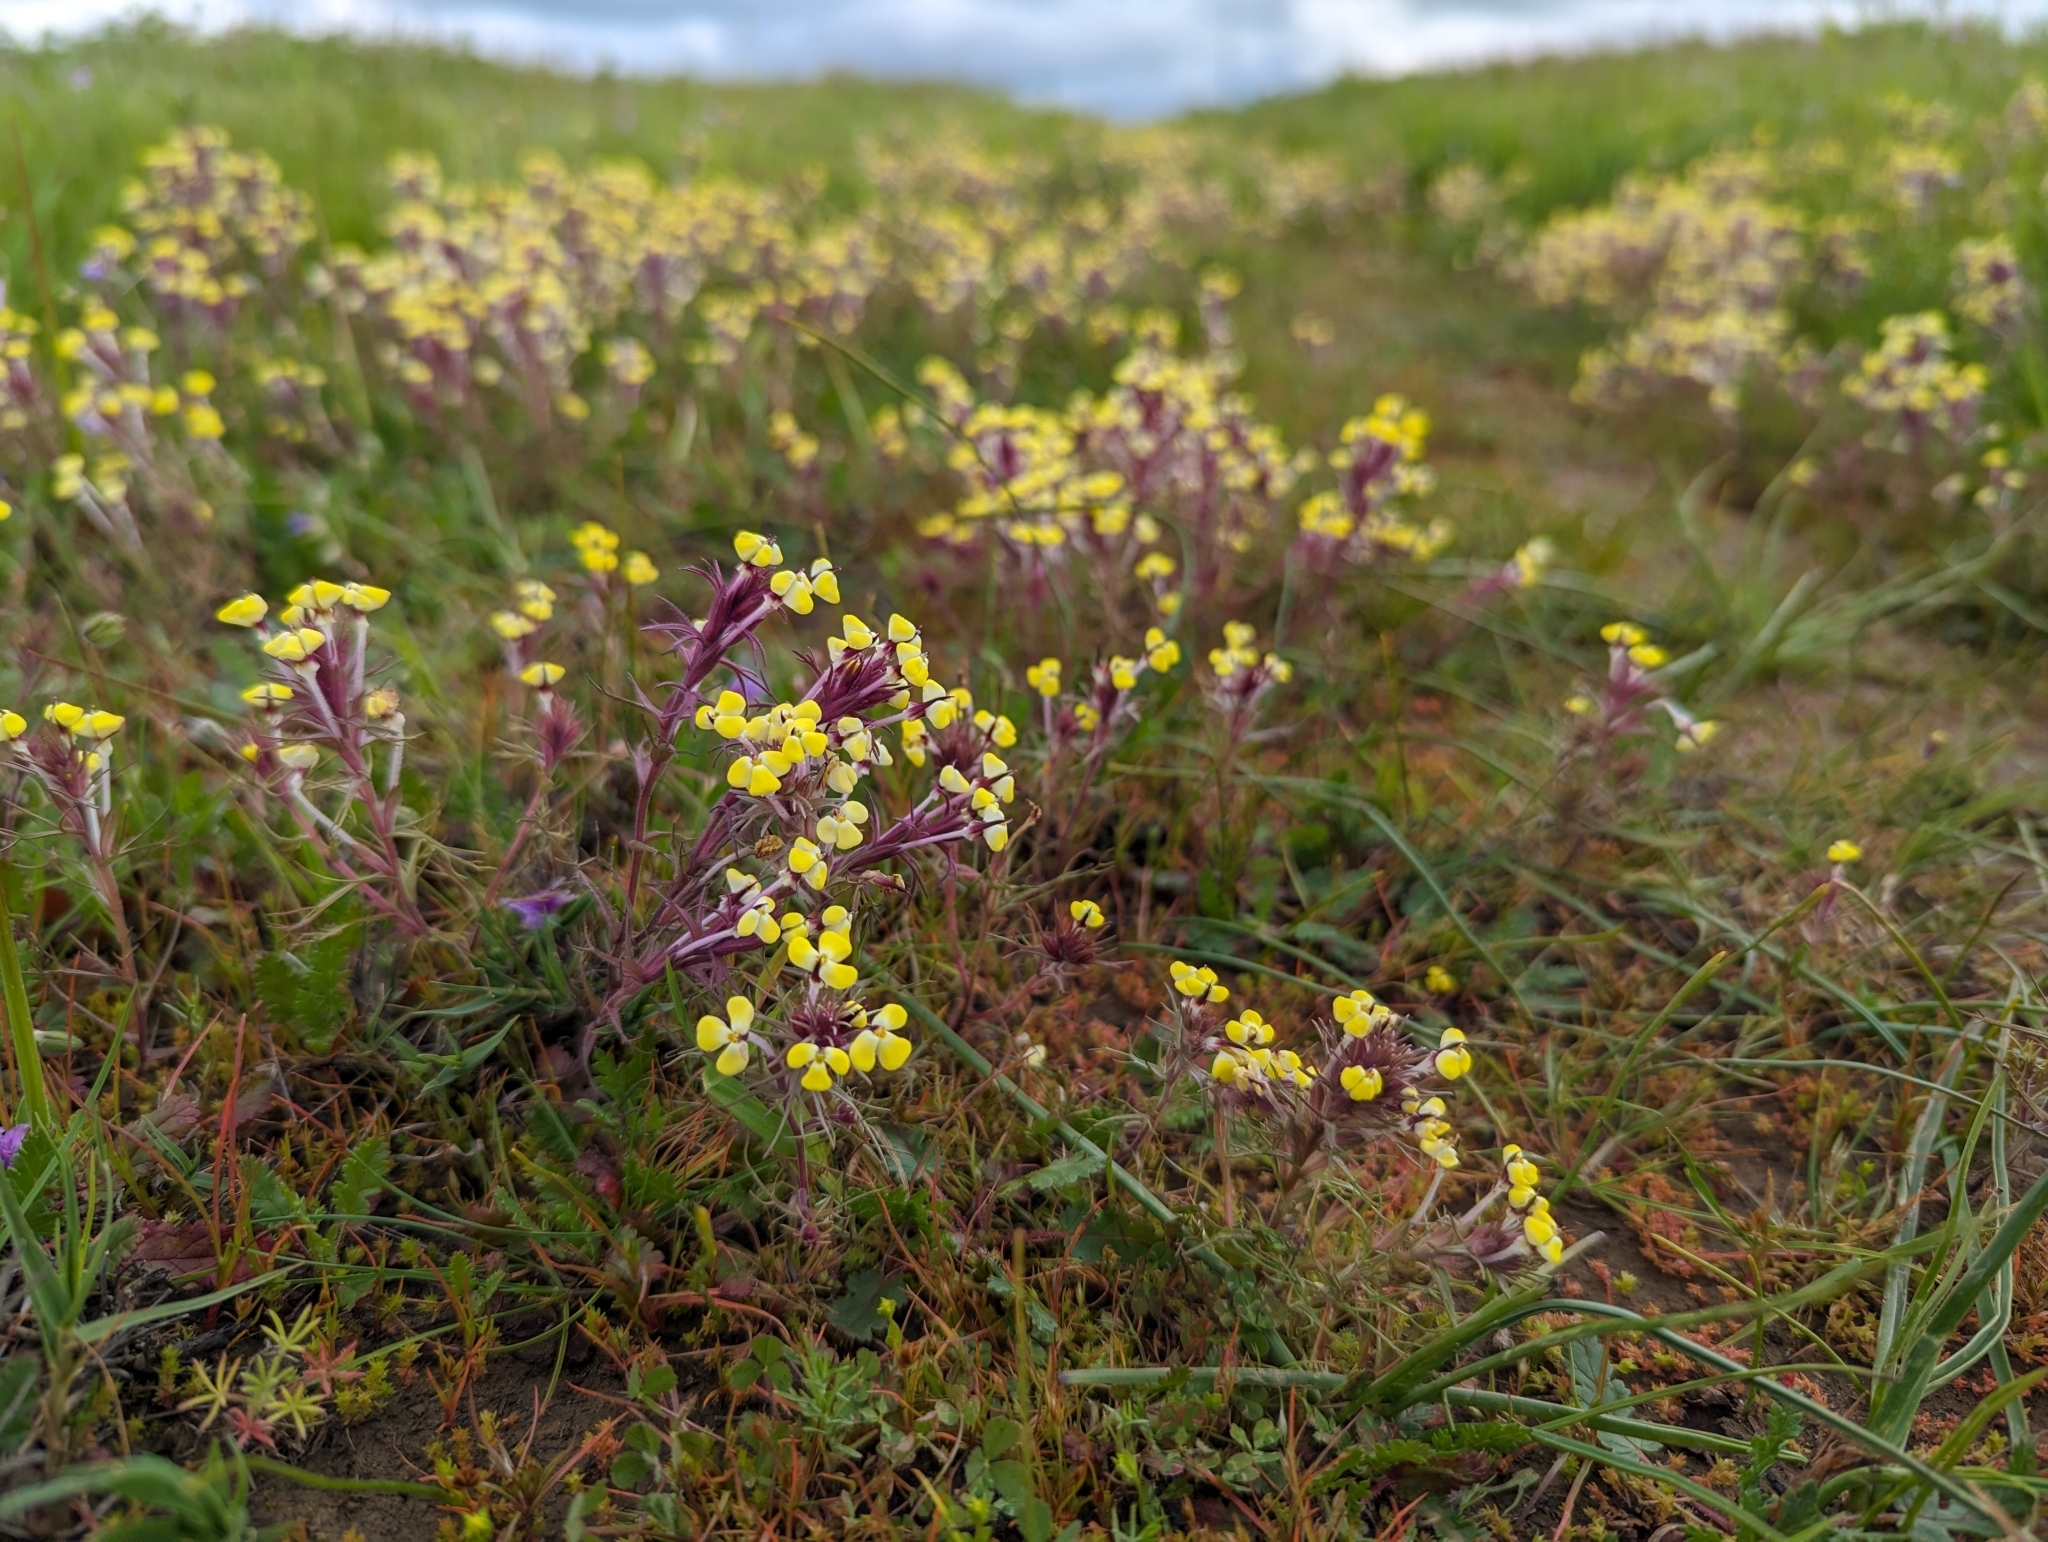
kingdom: Plantae
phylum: Tracheophyta
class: Magnoliopsida
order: Lamiales
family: Orobanchaceae
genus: Triphysaria
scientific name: Triphysaria eriantha
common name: Johnny-tuck
